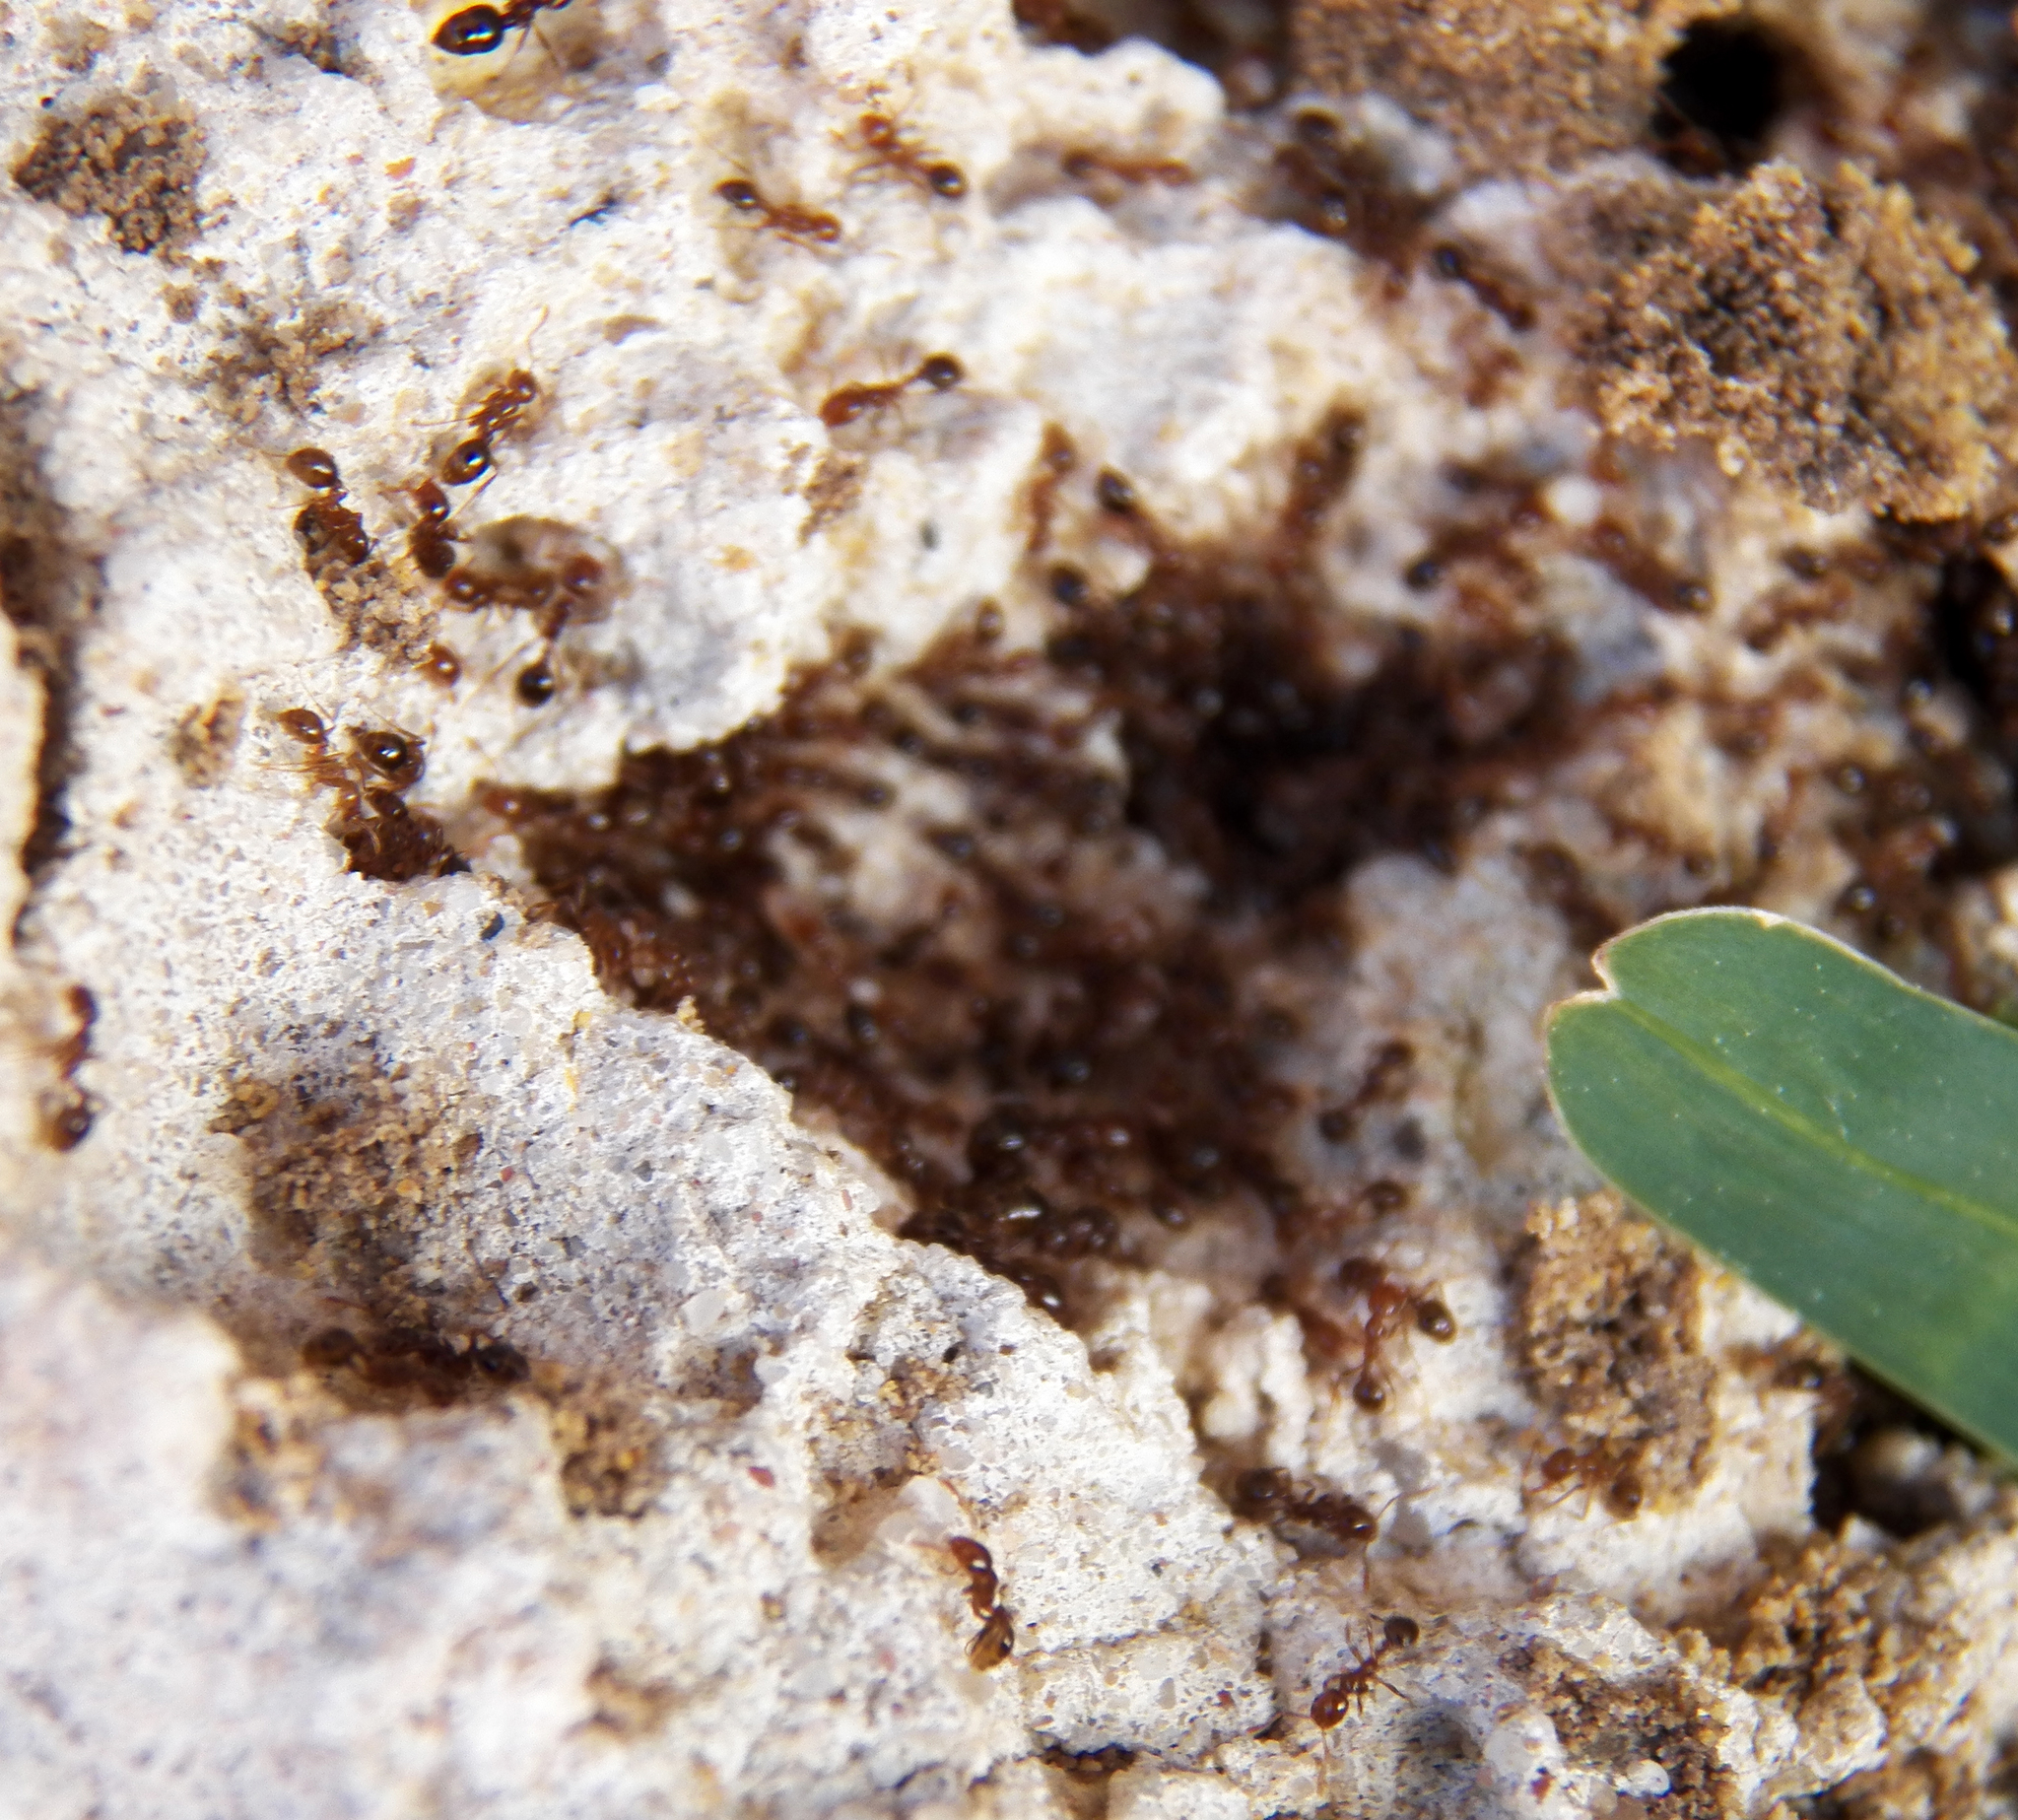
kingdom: Animalia
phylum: Arthropoda
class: Insecta
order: Hymenoptera
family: Formicidae
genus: Solenopsis
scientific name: Solenopsis invicta
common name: Red imported fire ant
